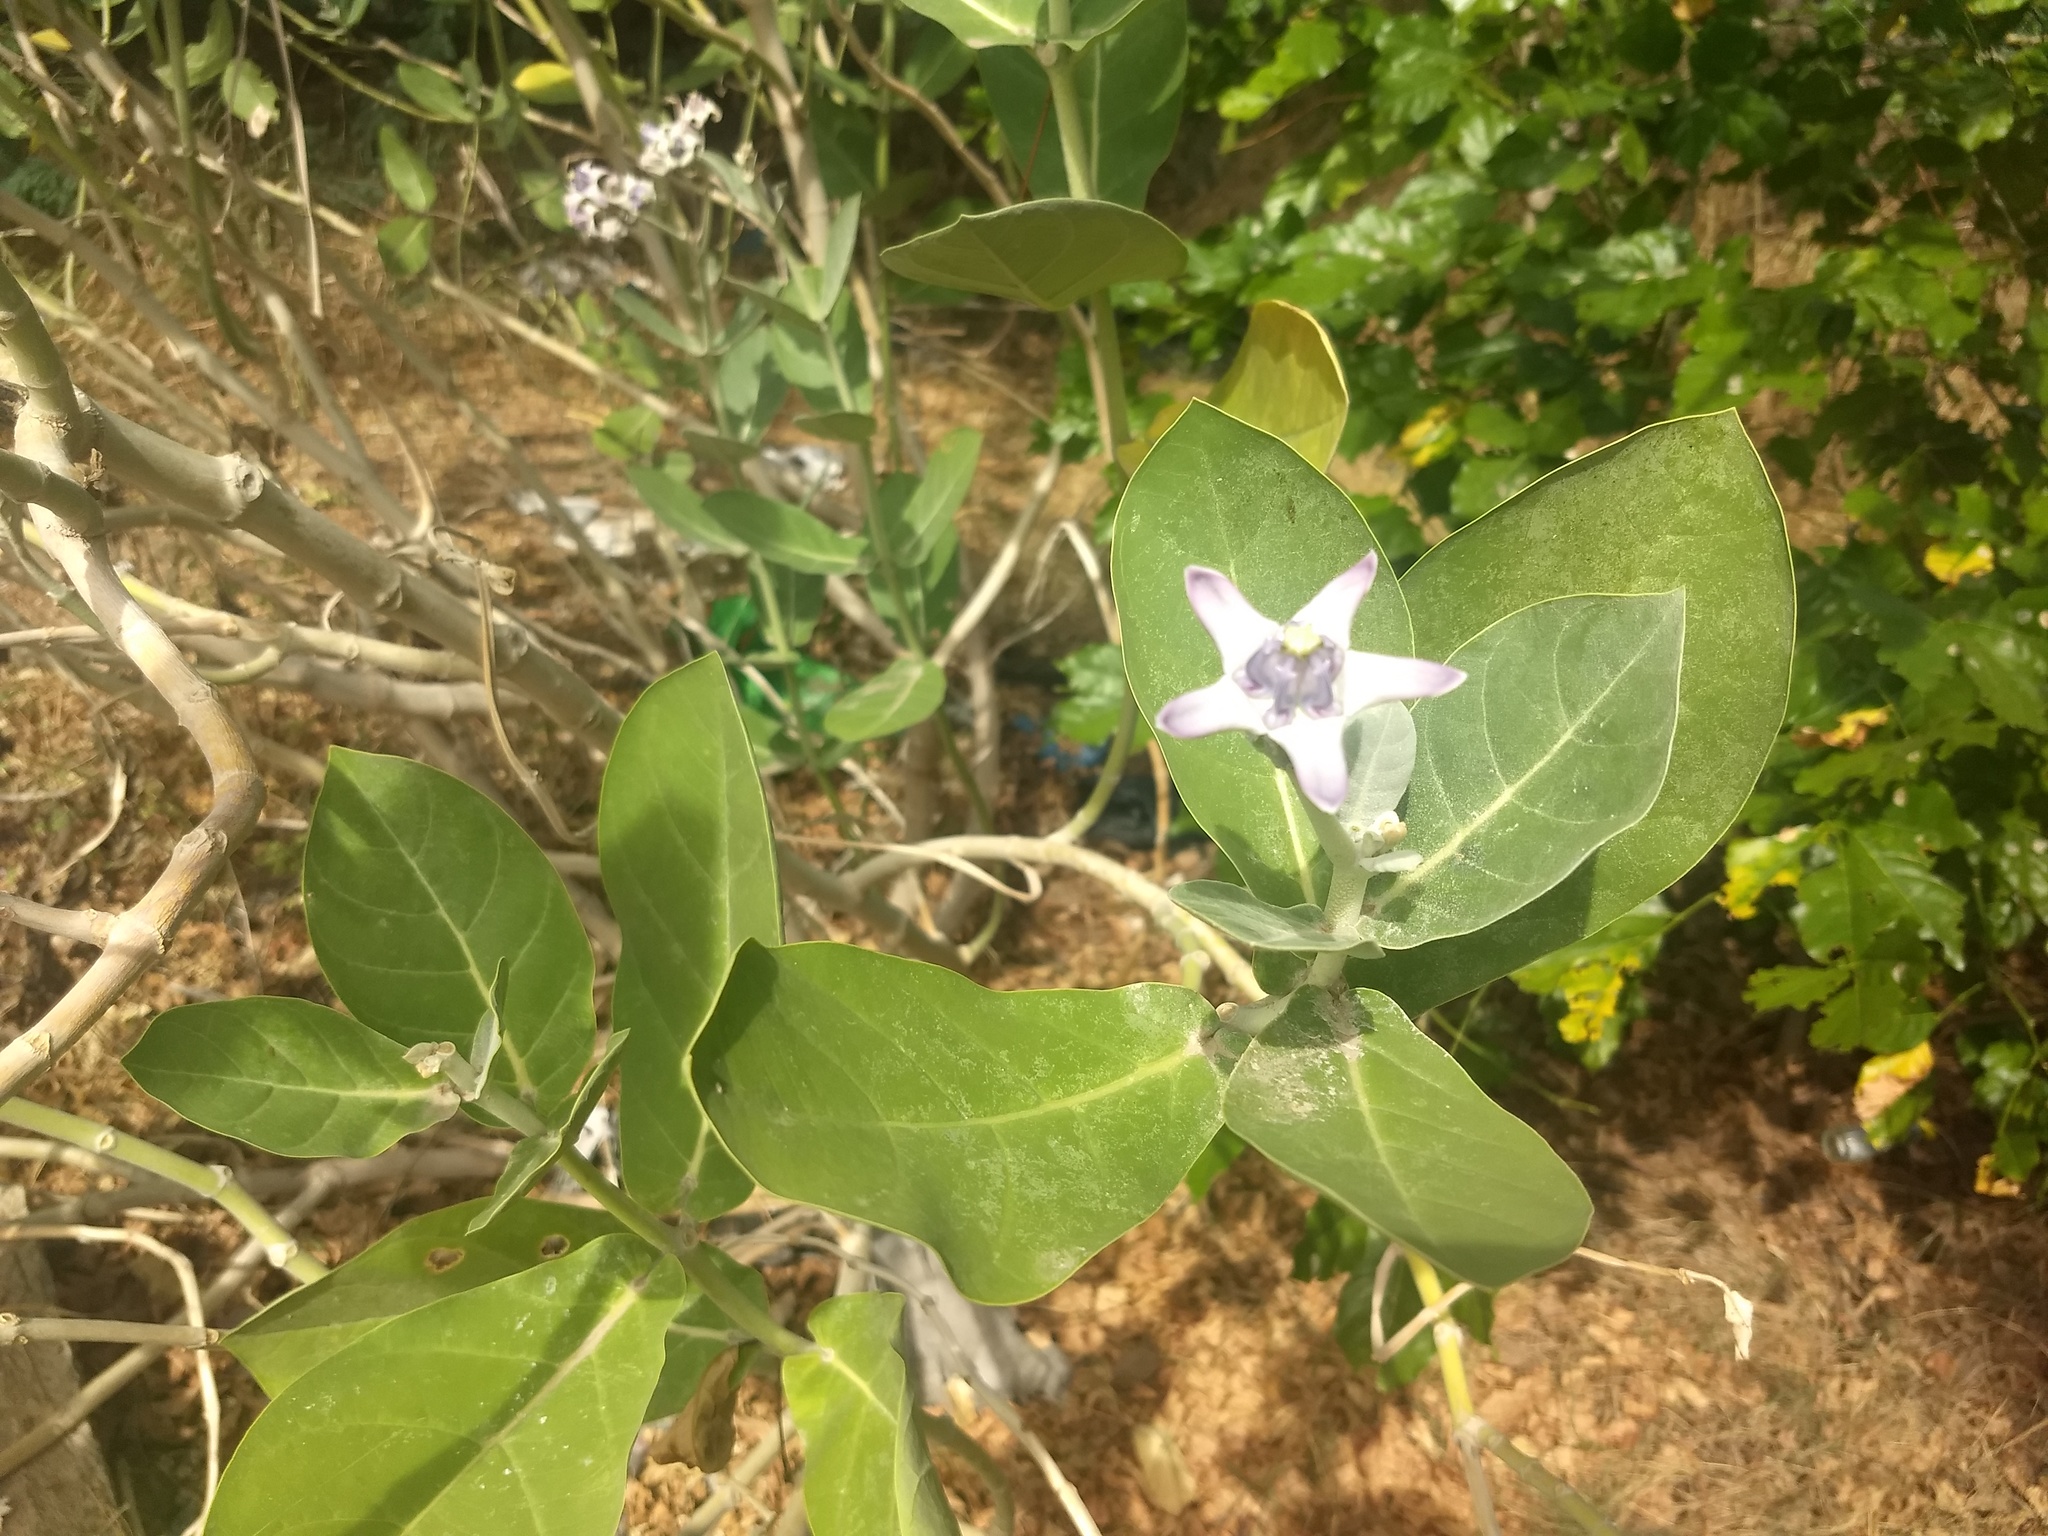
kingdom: Plantae
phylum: Tracheophyta
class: Magnoliopsida
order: Gentianales
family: Apocynaceae
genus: Calotropis
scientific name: Calotropis gigantea
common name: Crown flower
